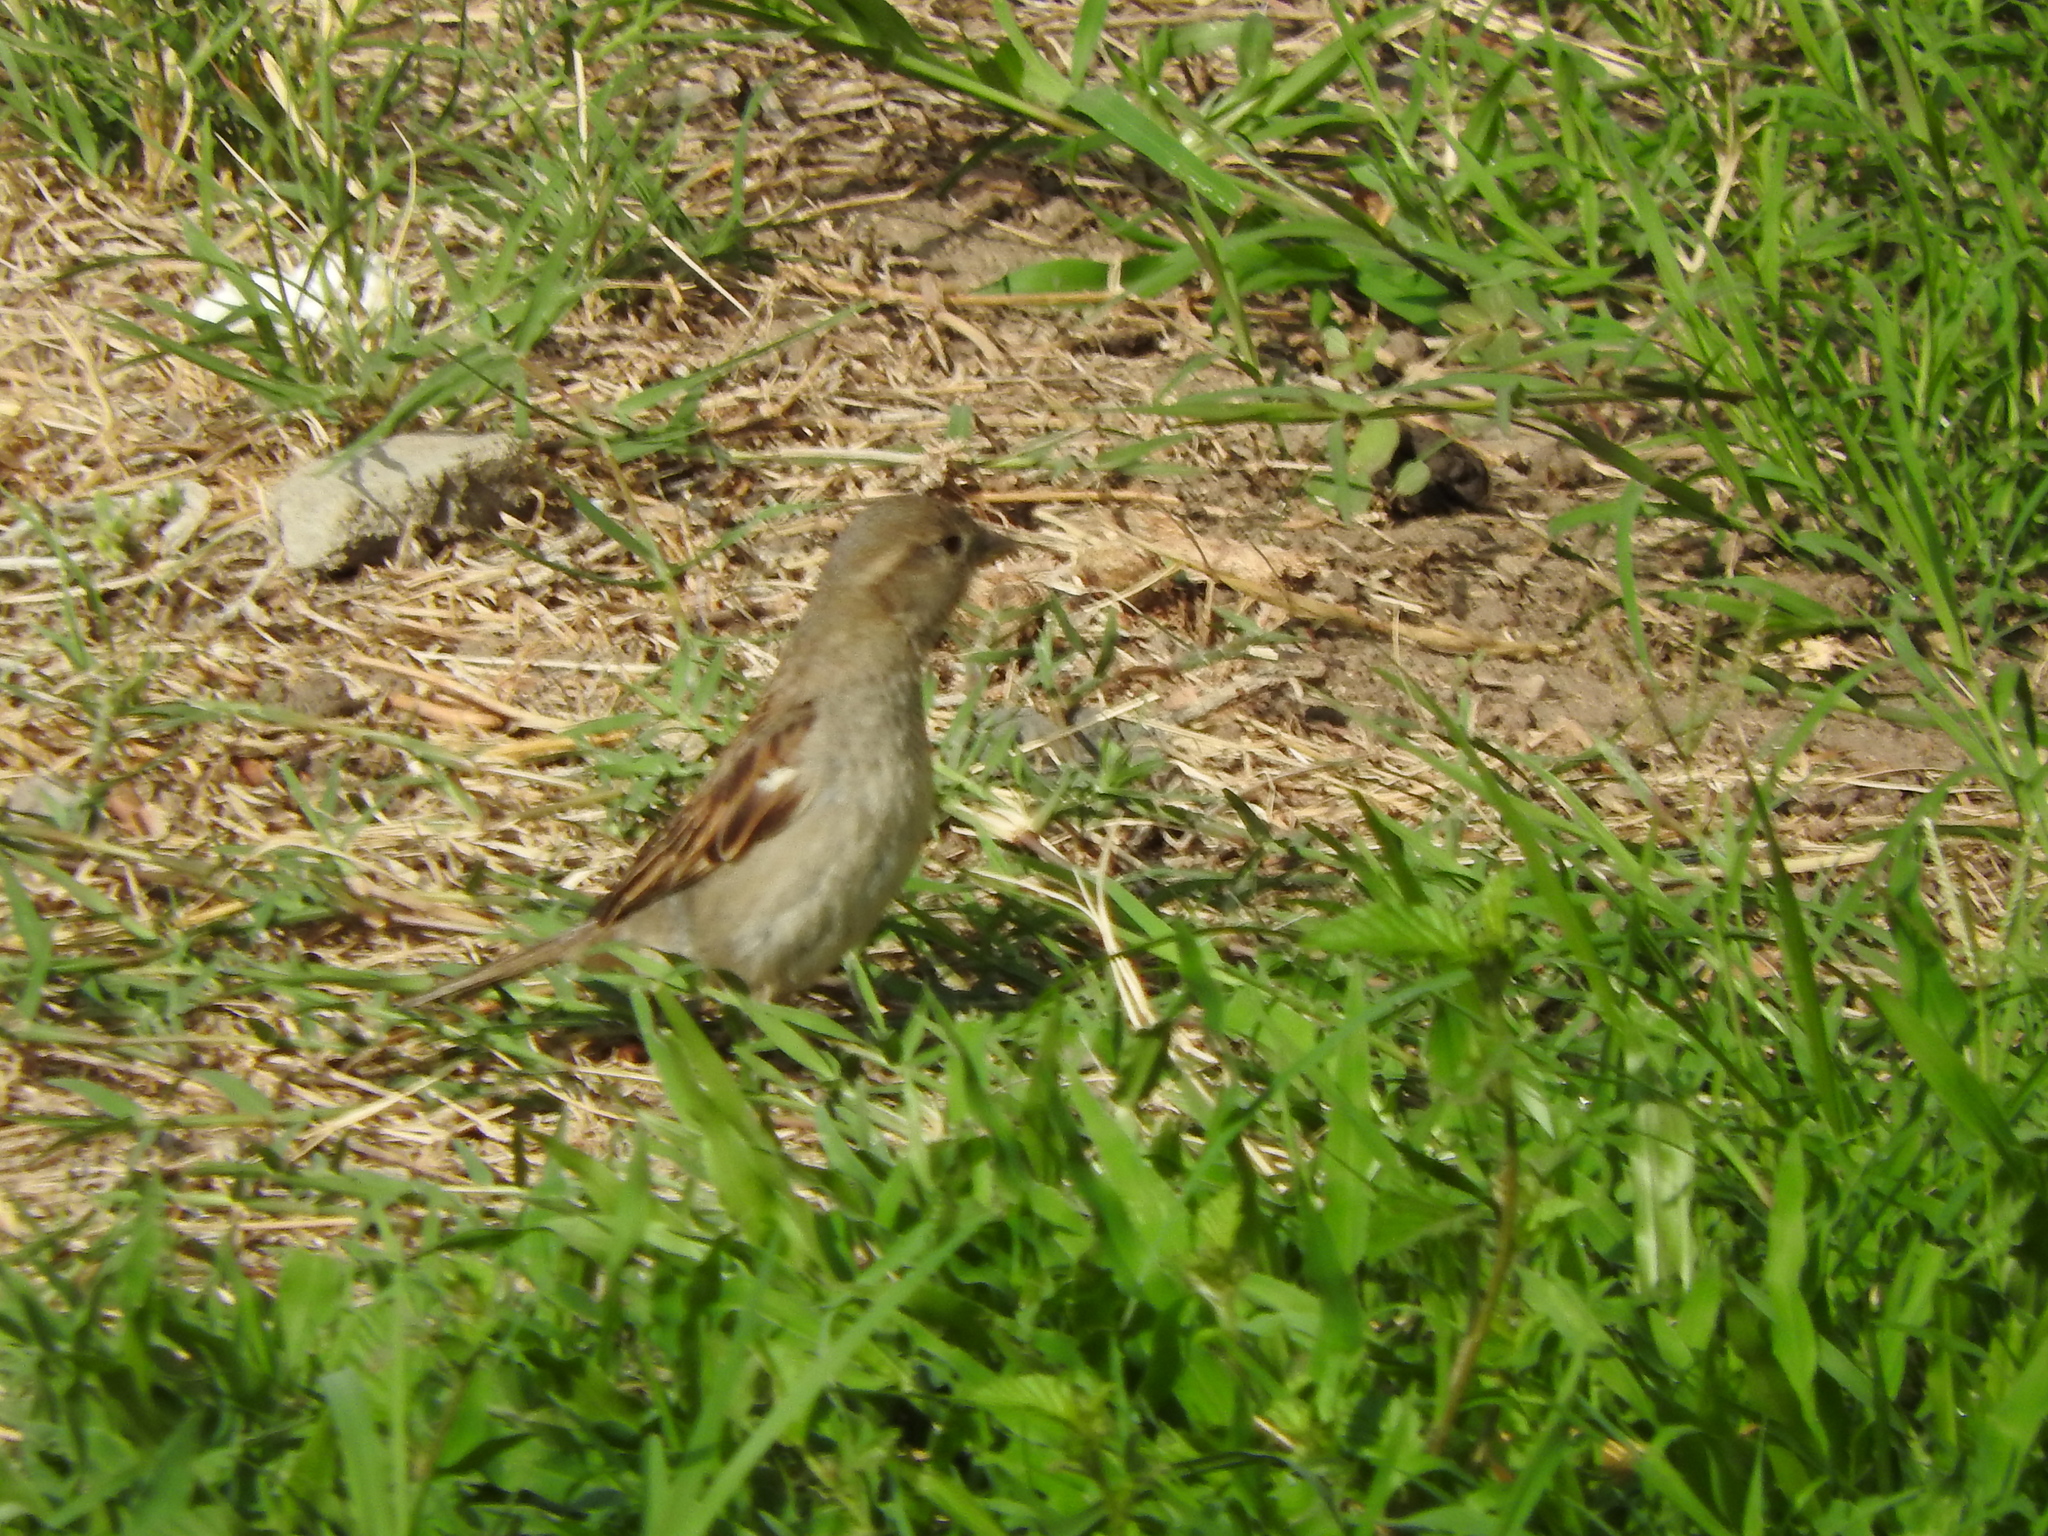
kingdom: Animalia
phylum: Chordata
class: Aves
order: Passeriformes
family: Passeridae
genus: Passer
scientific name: Passer domesticus
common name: House sparrow
